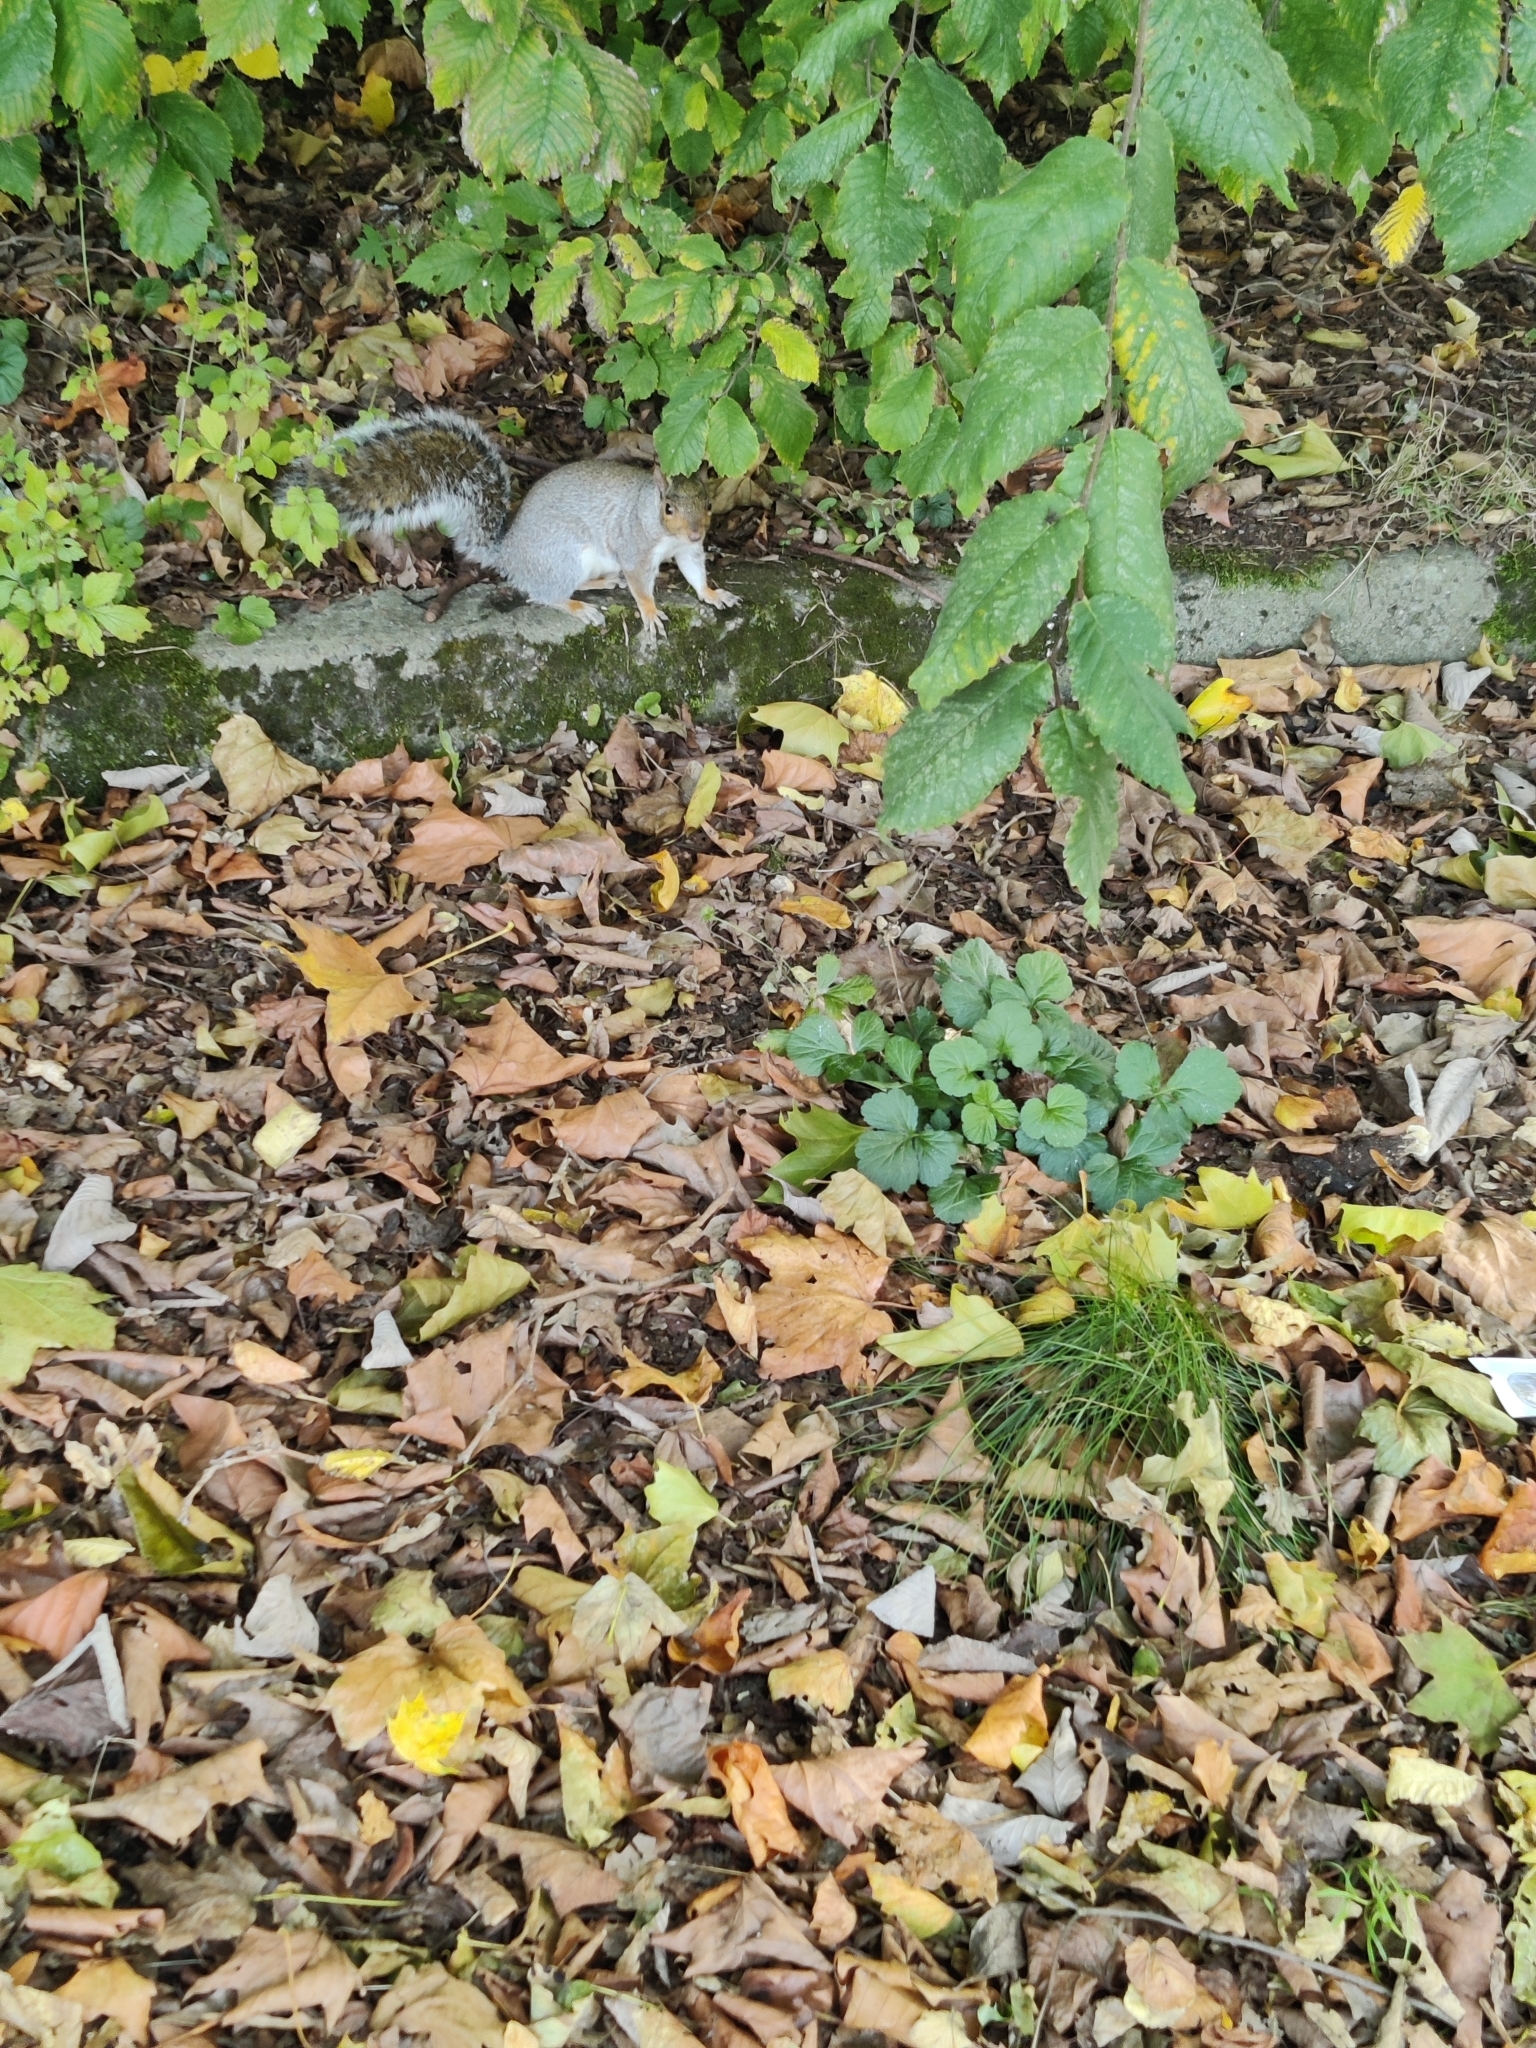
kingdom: Animalia
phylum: Chordata
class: Mammalia
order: Rodentia
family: Sciuridae
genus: Sciurus
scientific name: Sciurus carolinensis
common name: Eastern gray squirrel
